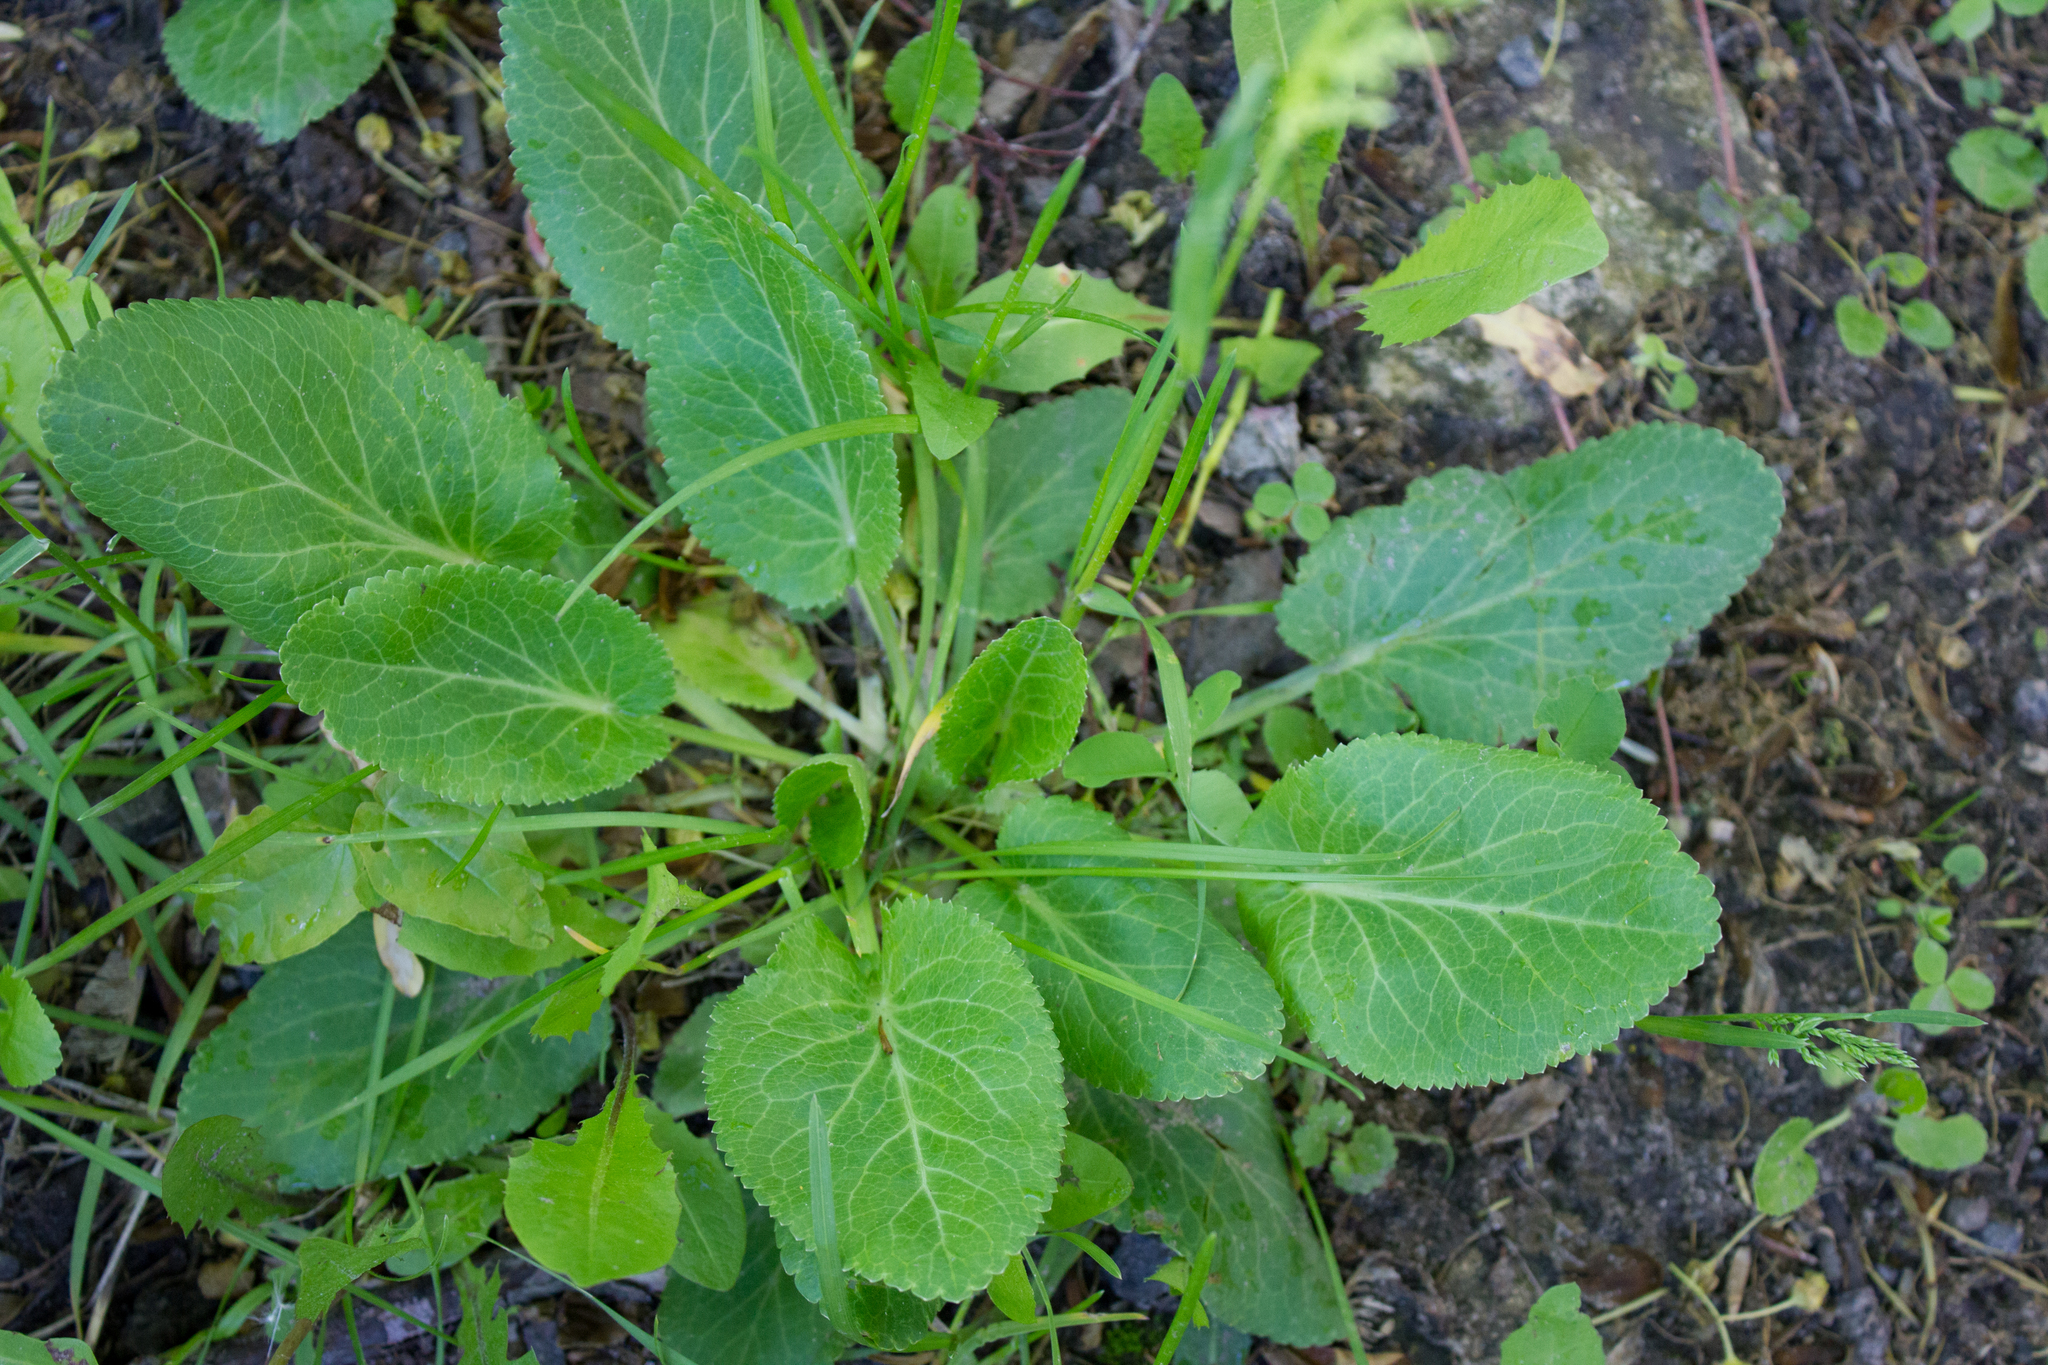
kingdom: Plantae
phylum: Tracheophyta
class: Magnoliopsida
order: Apiales
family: Apiaceae
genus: Eryngium
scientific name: Eryngium planum
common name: Blue eryngo
